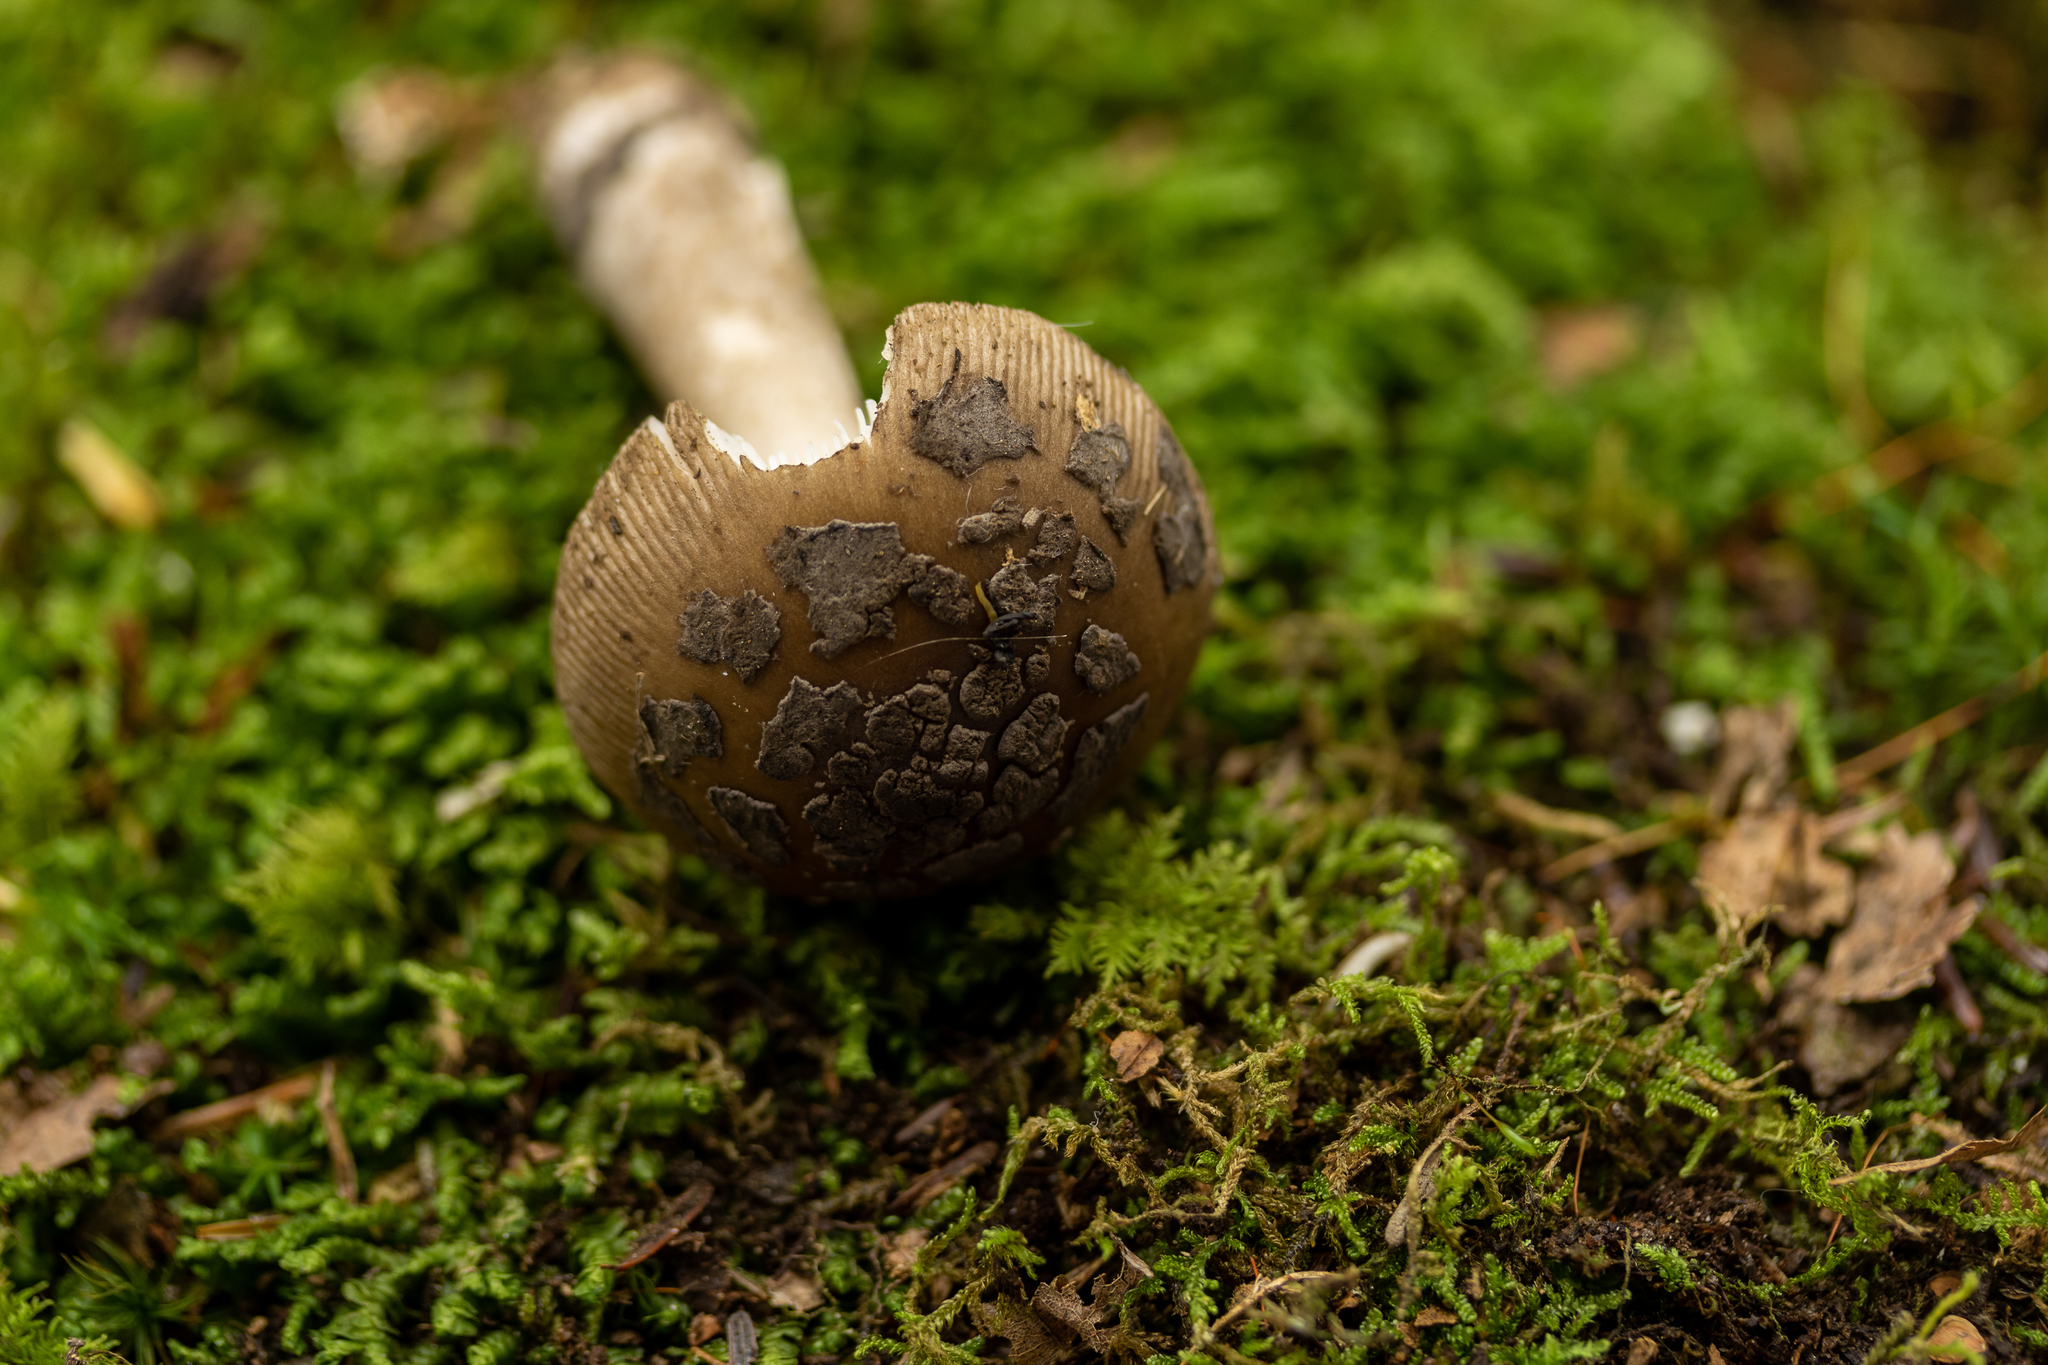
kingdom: Fungi
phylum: Basidiomycota
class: Agaricomycetes
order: Agaricales
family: Amanitaceae
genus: Amanita
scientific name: Amanita rhacopus
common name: Shaggy legged ringless amanita
